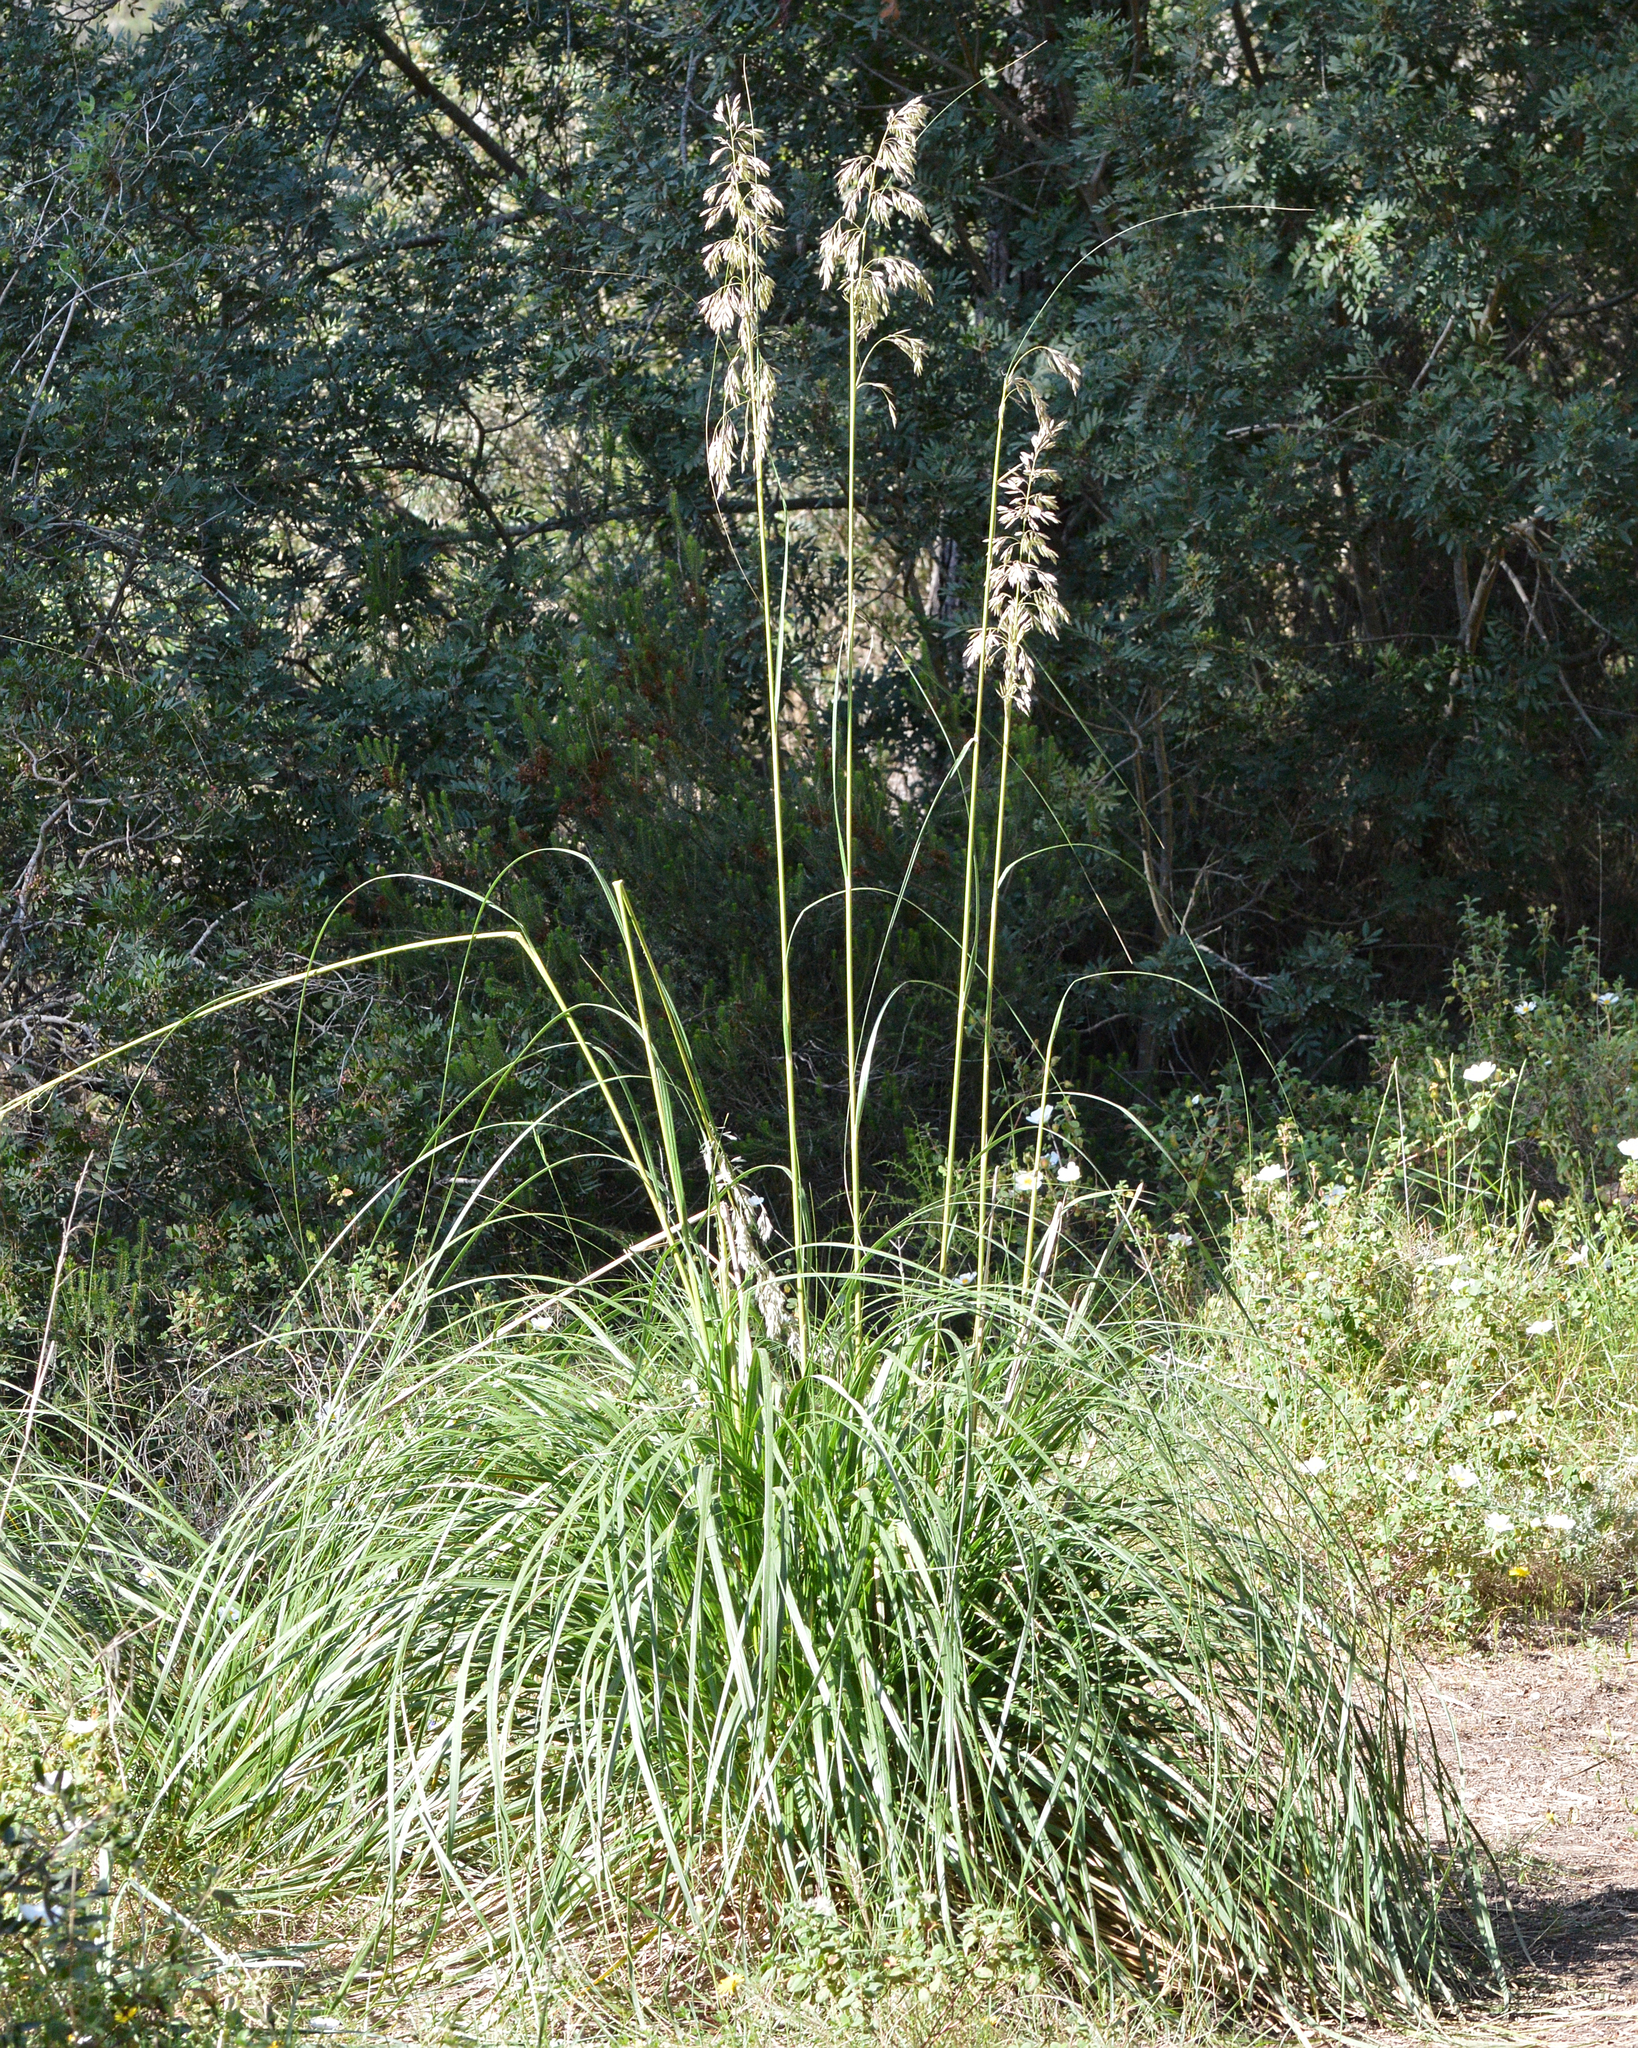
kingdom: Plantae
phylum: Tracheophyta
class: Liliopsida
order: Poales
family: Poaceae
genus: Ampelodesmos
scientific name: Ampelodesmos mauritanicus
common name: Mauritanian grass
